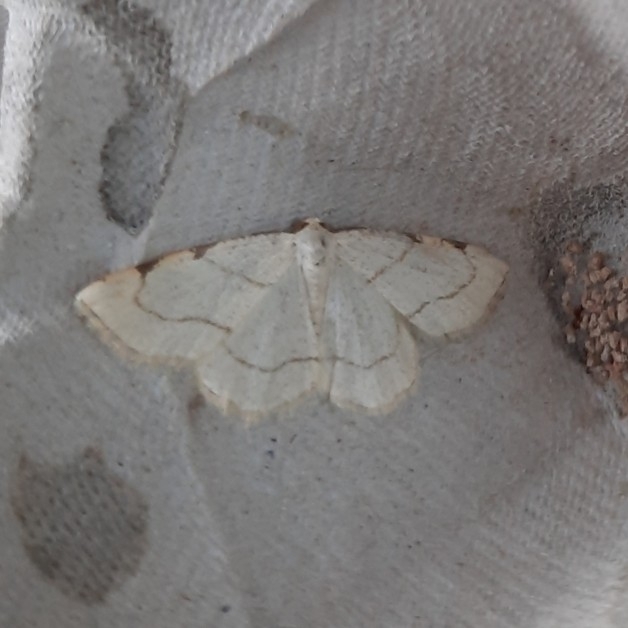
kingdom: Animalia
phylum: Arthropoda
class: Insecta
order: Lepidoptera
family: Geometridae
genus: Stegania
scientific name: Stegania trimaculata
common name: Dorset cream wave
